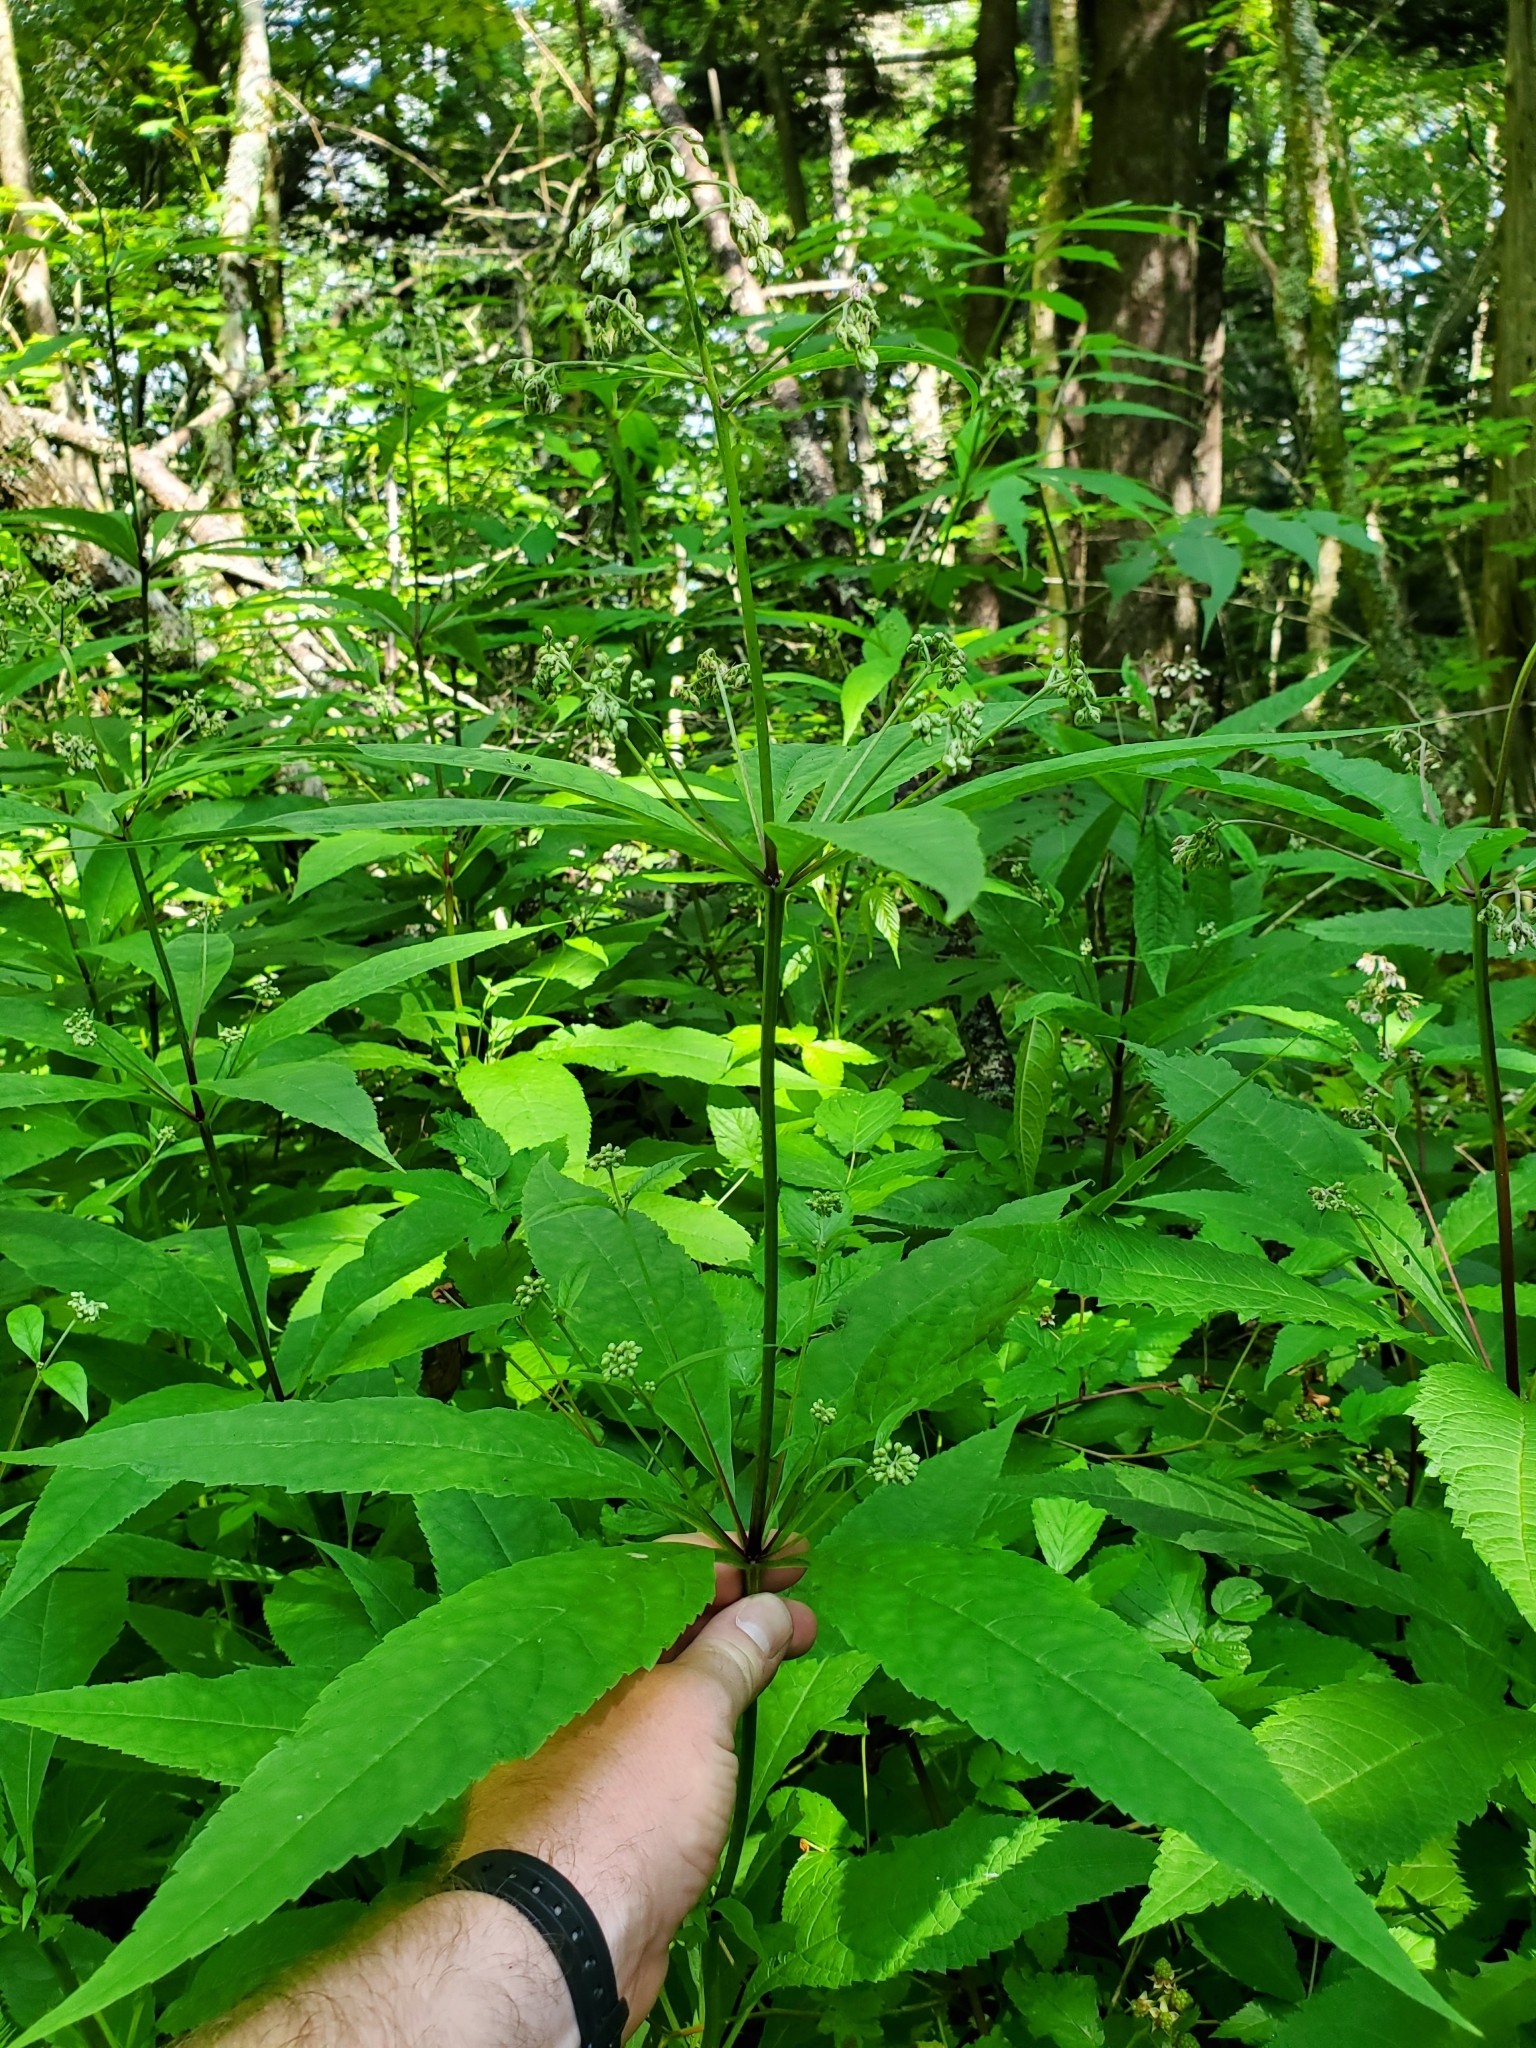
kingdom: Plantae
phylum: Tracheophyta
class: Magnoliopsida
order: Asterales
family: Asteraceae
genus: Eutrochium
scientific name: Eutrochium purpureum
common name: Gravelroot
